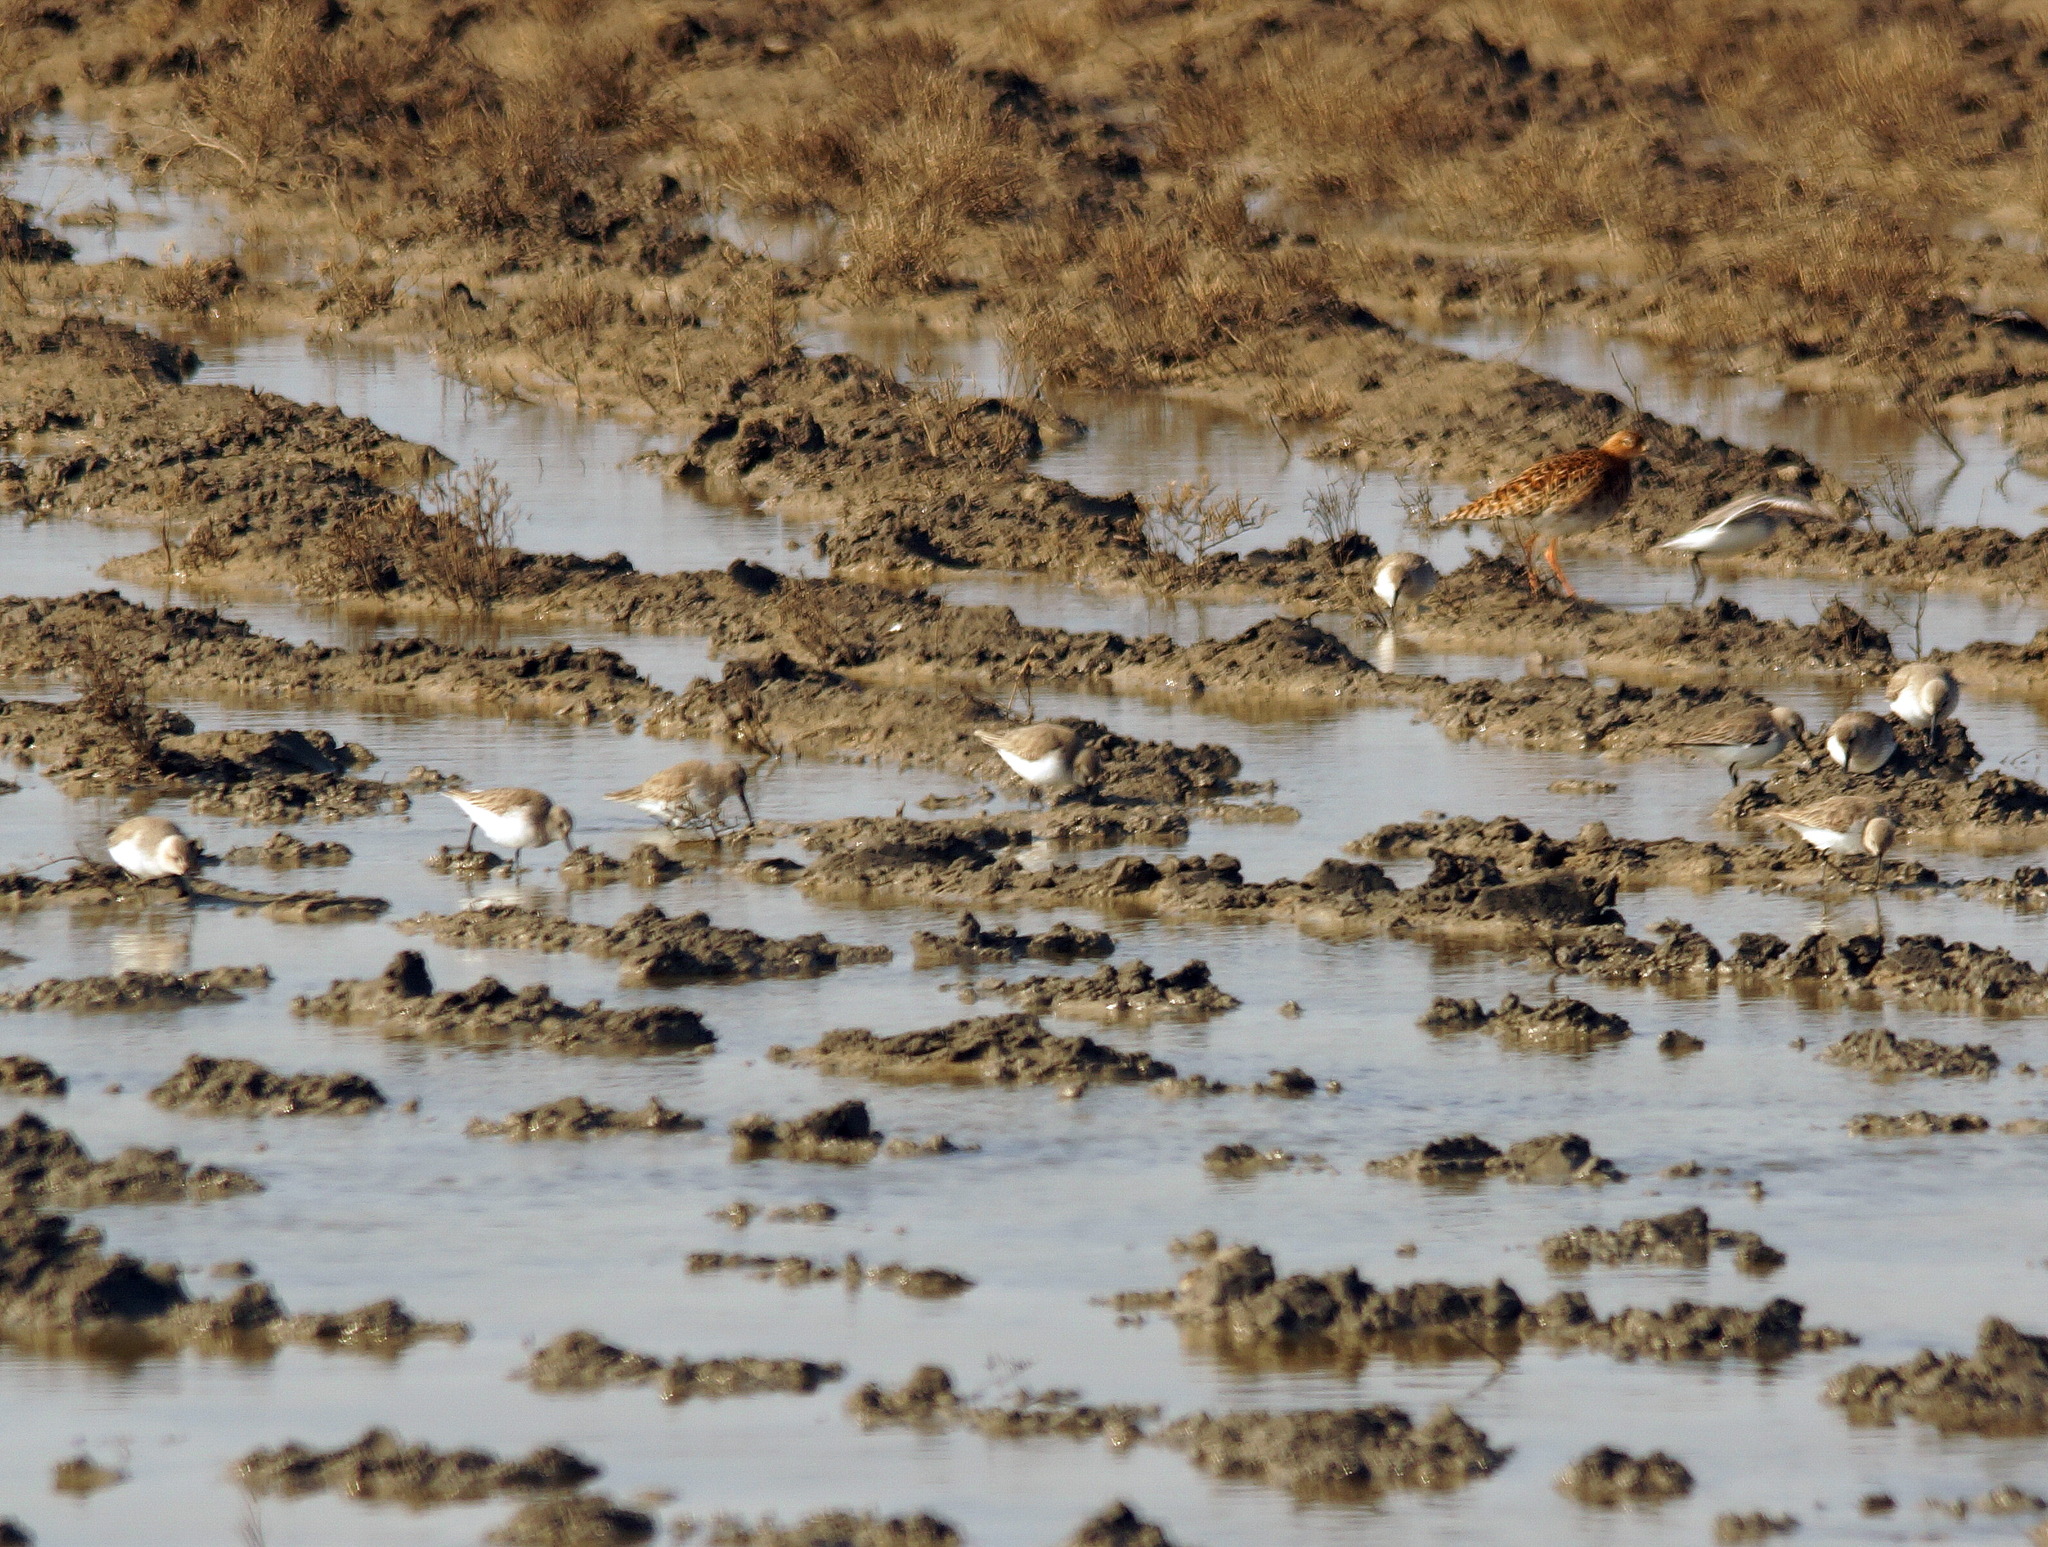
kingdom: Animalia
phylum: Chordata
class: Aves
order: Charadriiformes
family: Scolopacidae
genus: Calidris
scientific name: Calidris pugnax
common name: Ruff
